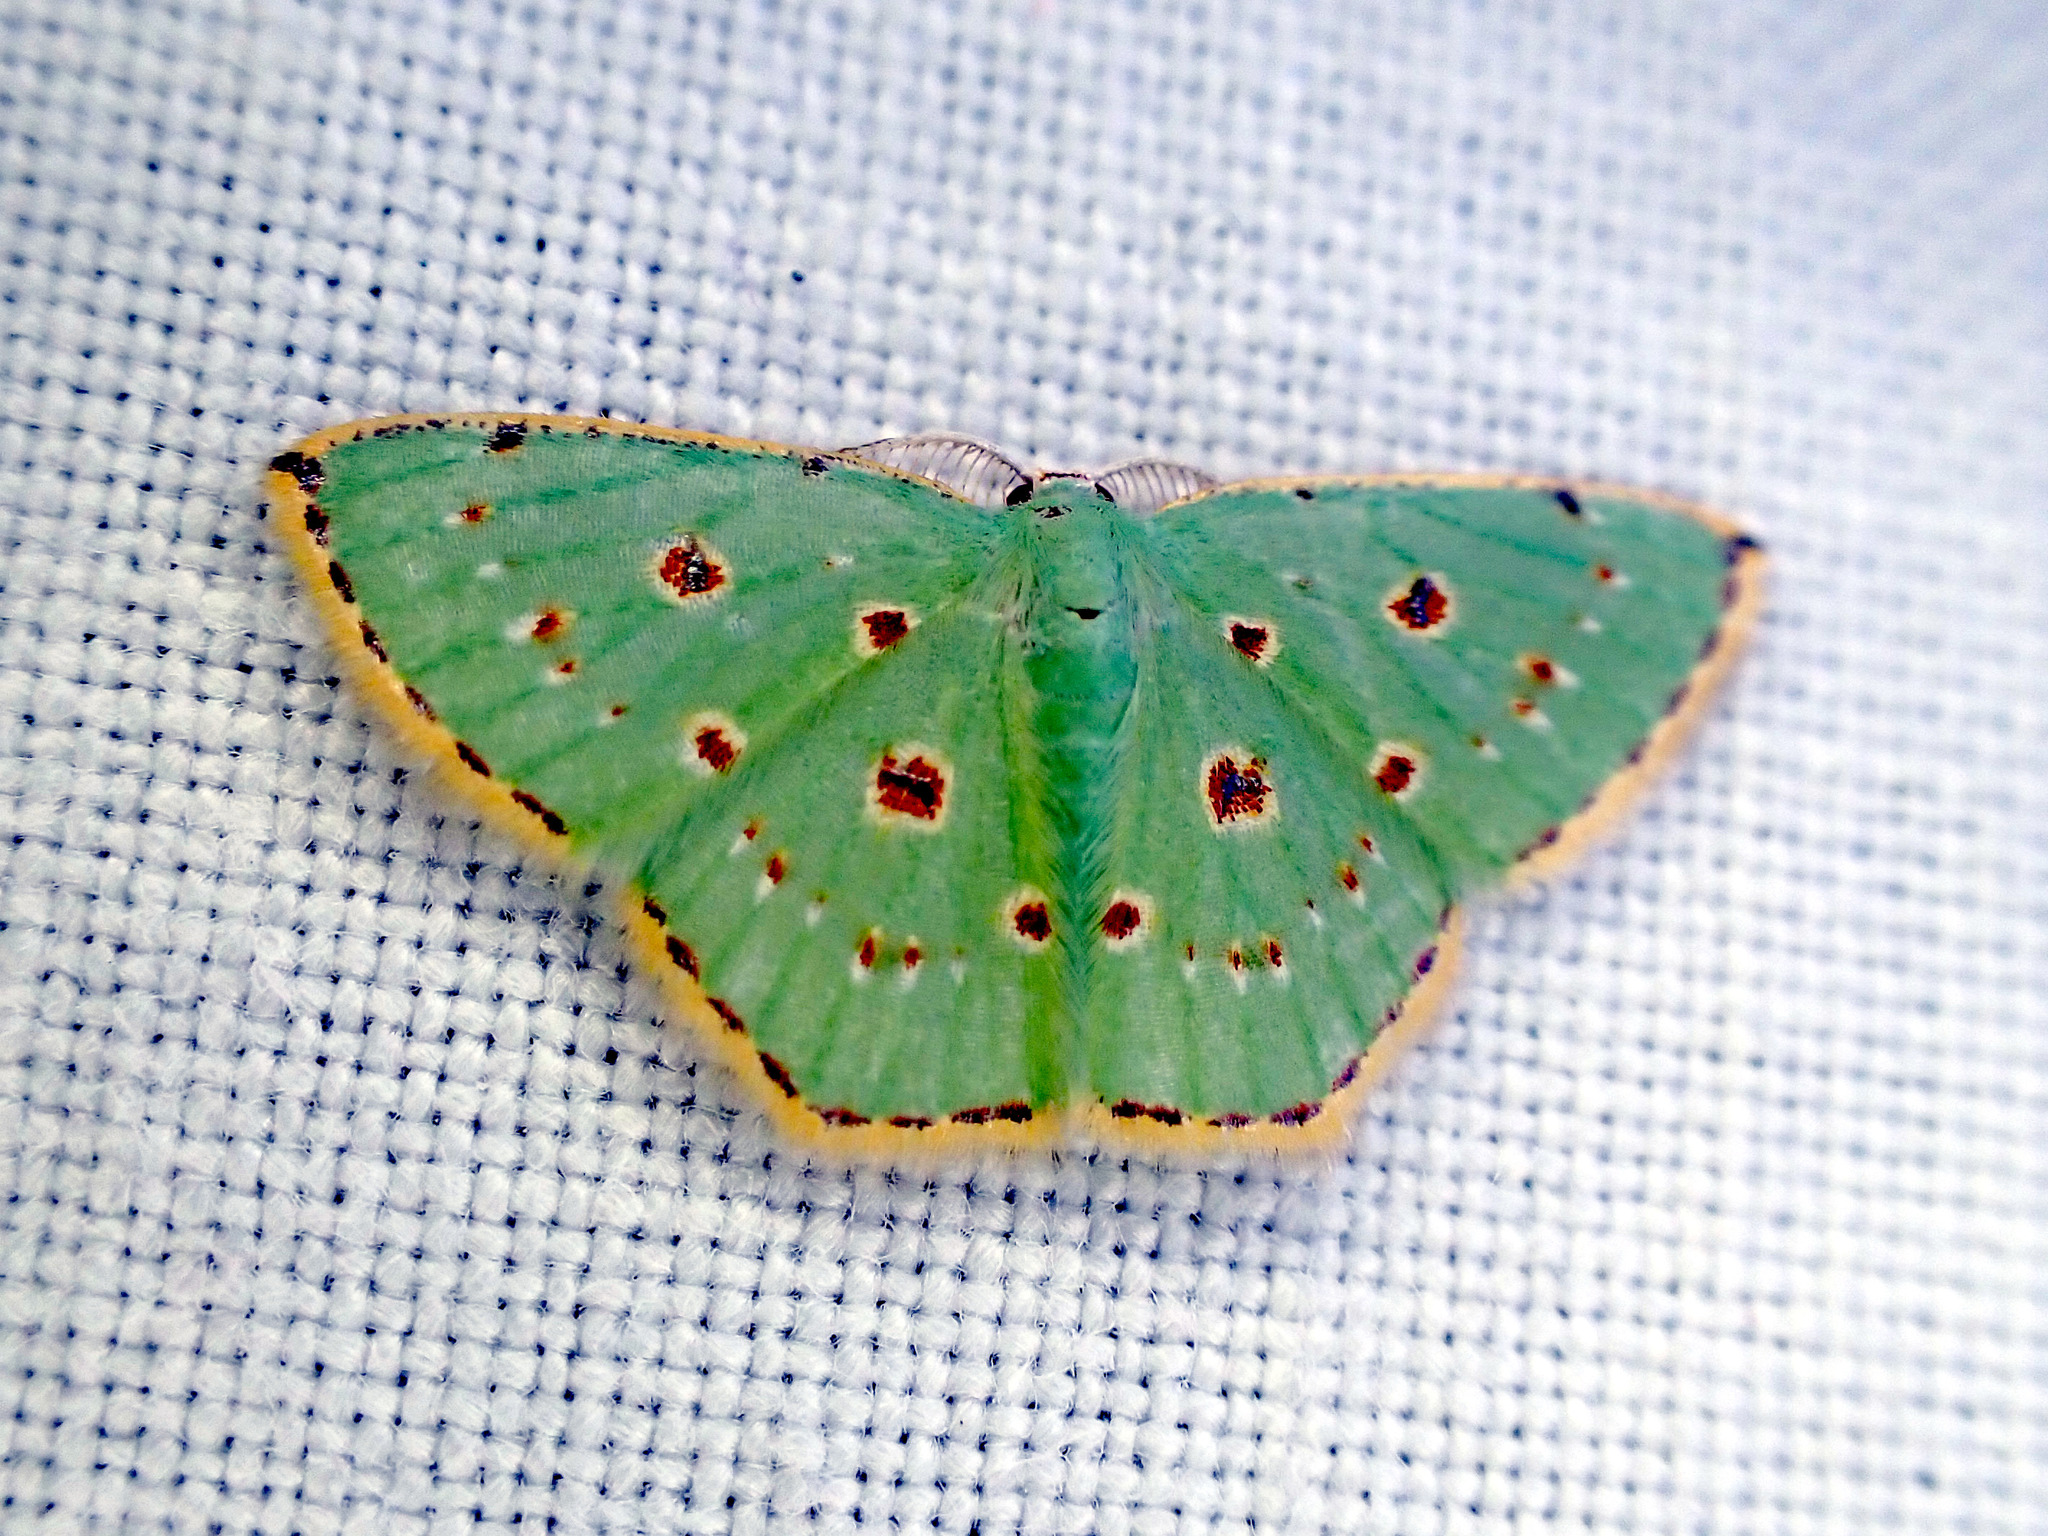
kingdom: Animalia
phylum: Arthropoda
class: Insecta
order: Lepidoptera
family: Geometridae
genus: Comostola
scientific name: Comostola laesaria
